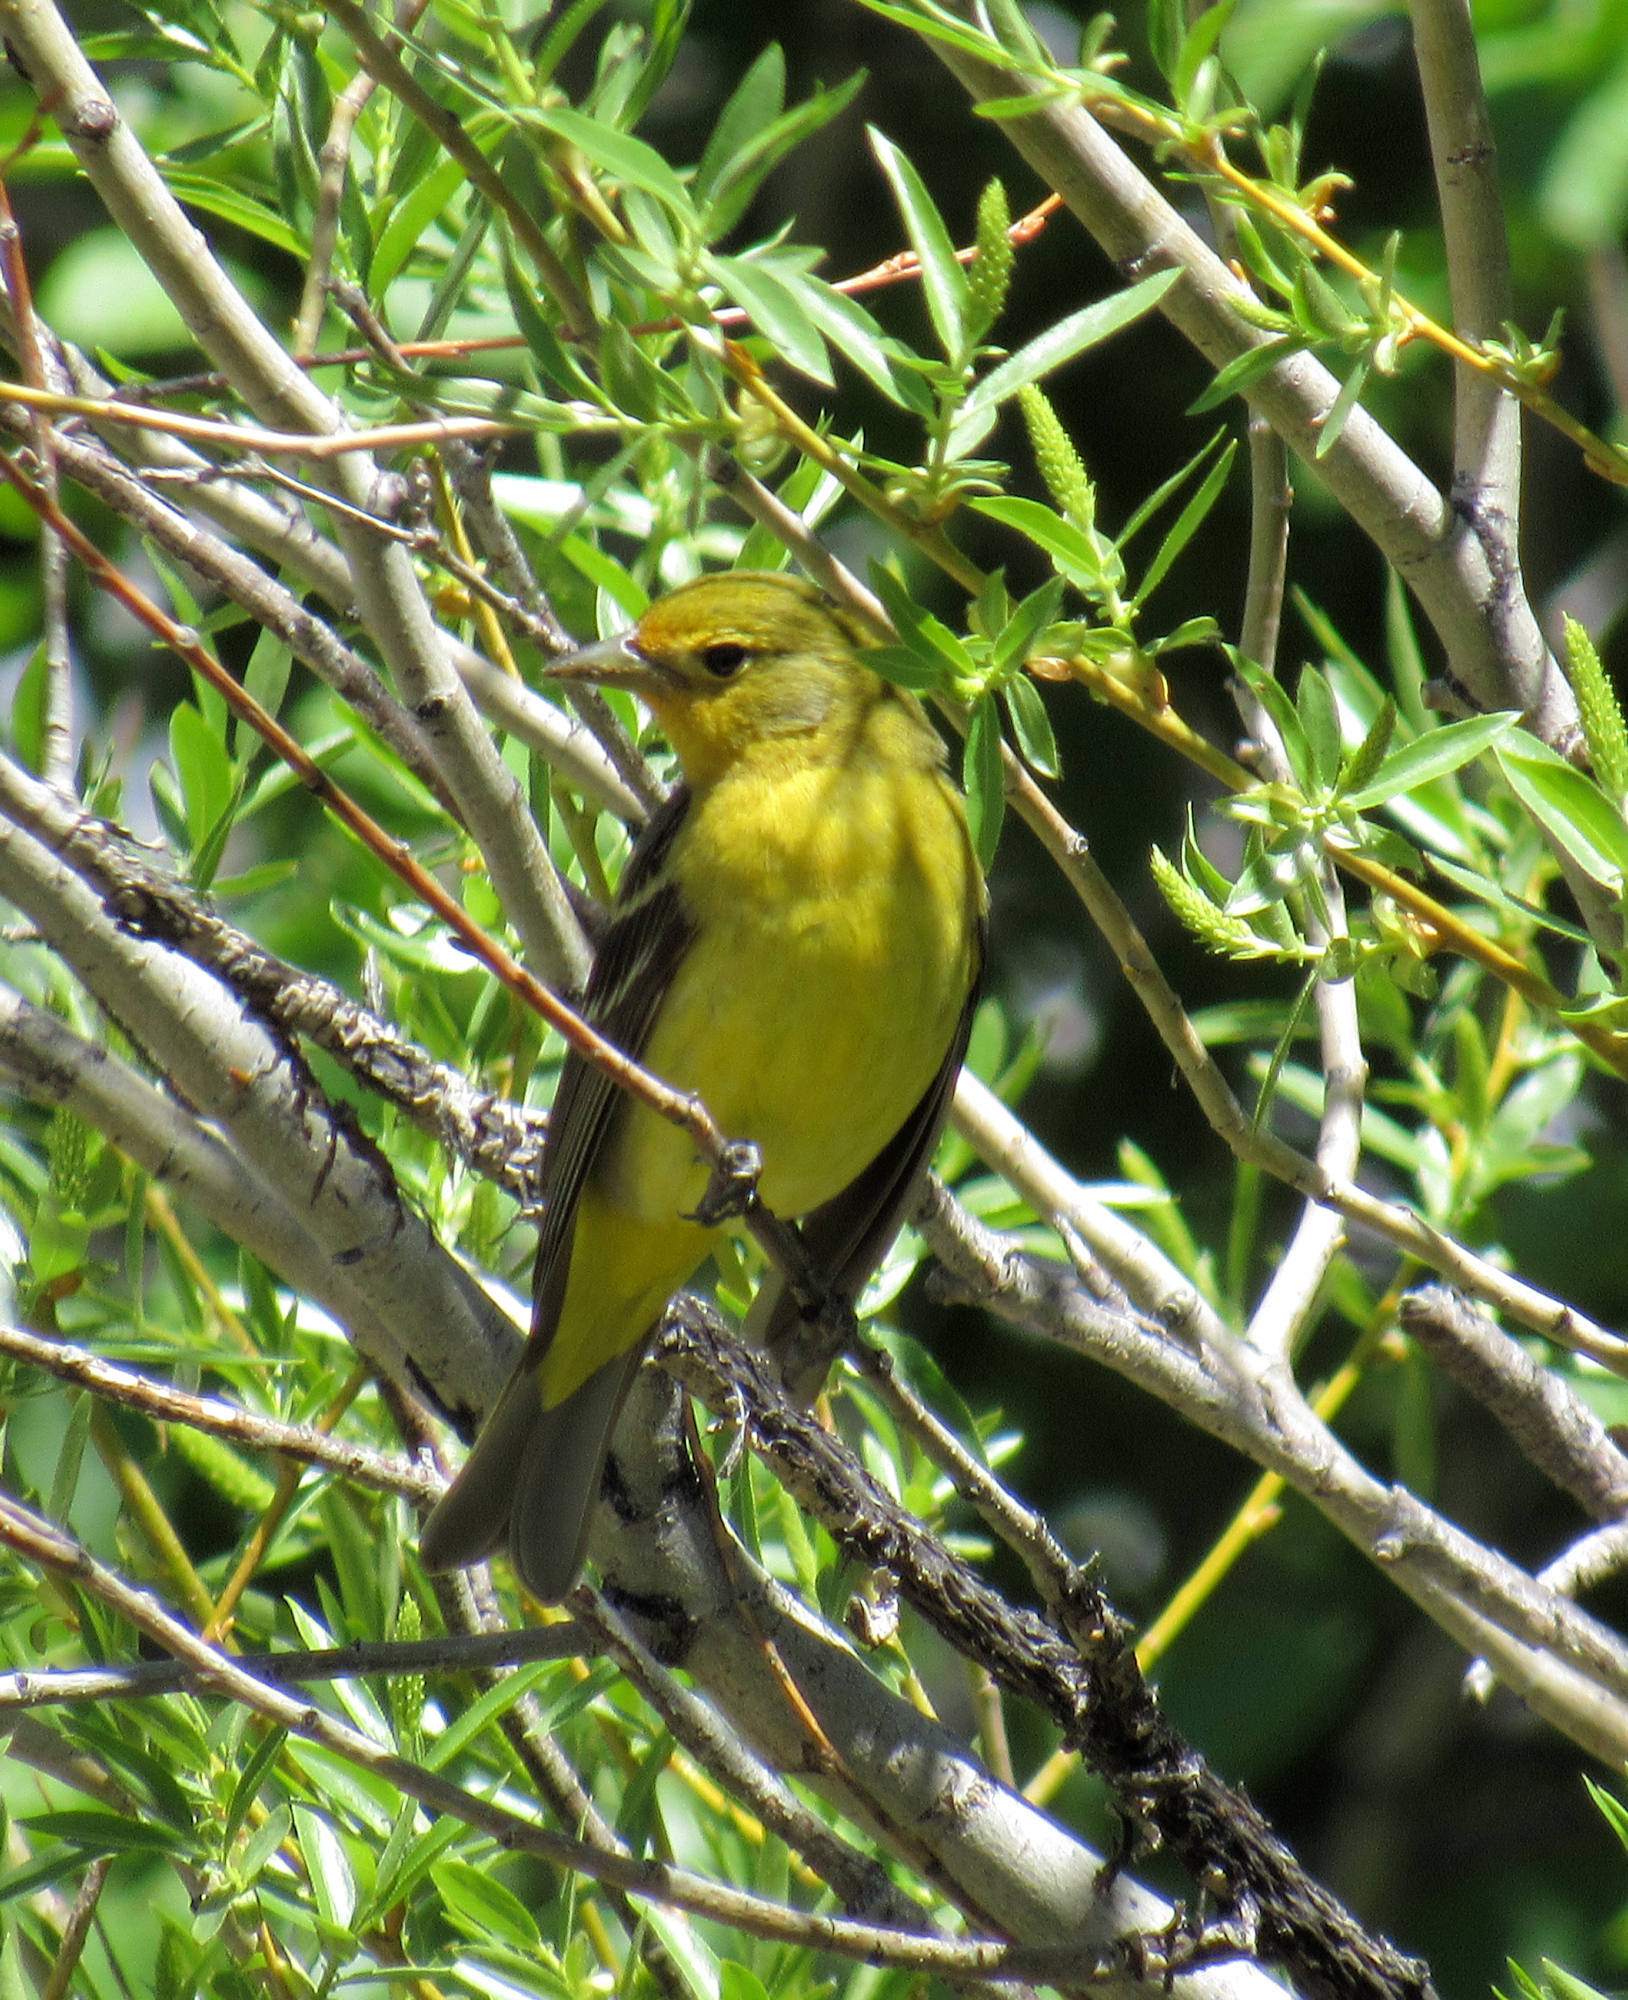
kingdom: Animalia
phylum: Chordata
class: Aves
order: Passeriformes
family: Cardinalidae
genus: Piranga
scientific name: Piranga ludoviciana
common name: Western tanager
